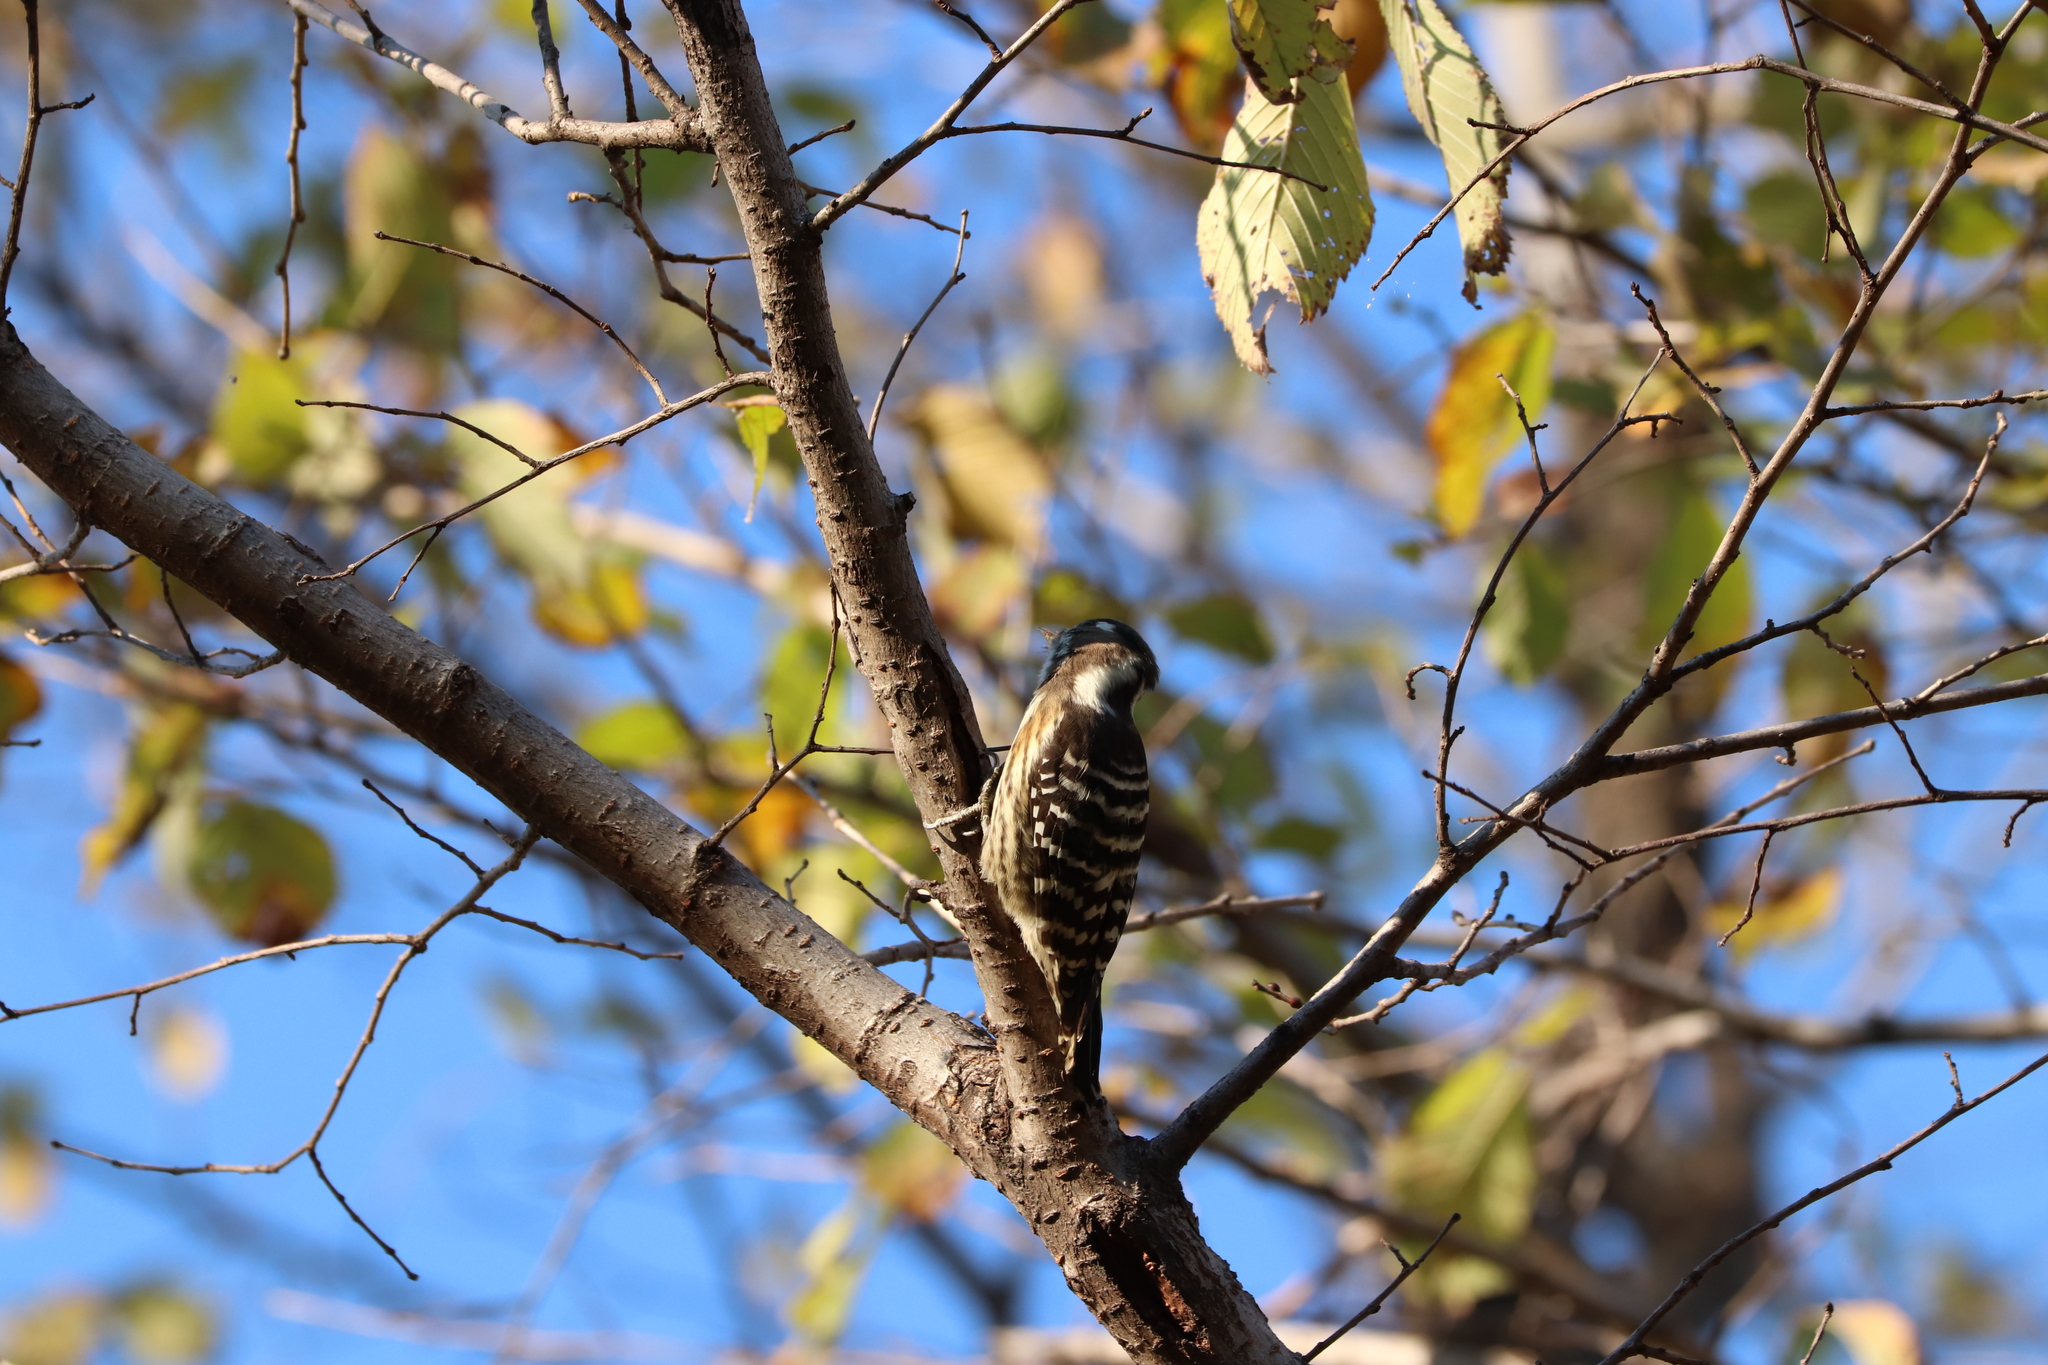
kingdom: Animalia
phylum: Chordata
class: Aves
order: Piciformes
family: Picidae
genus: Yungipicus
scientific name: Yungipicus kizuki
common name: Japanese pygmy woodpecker
